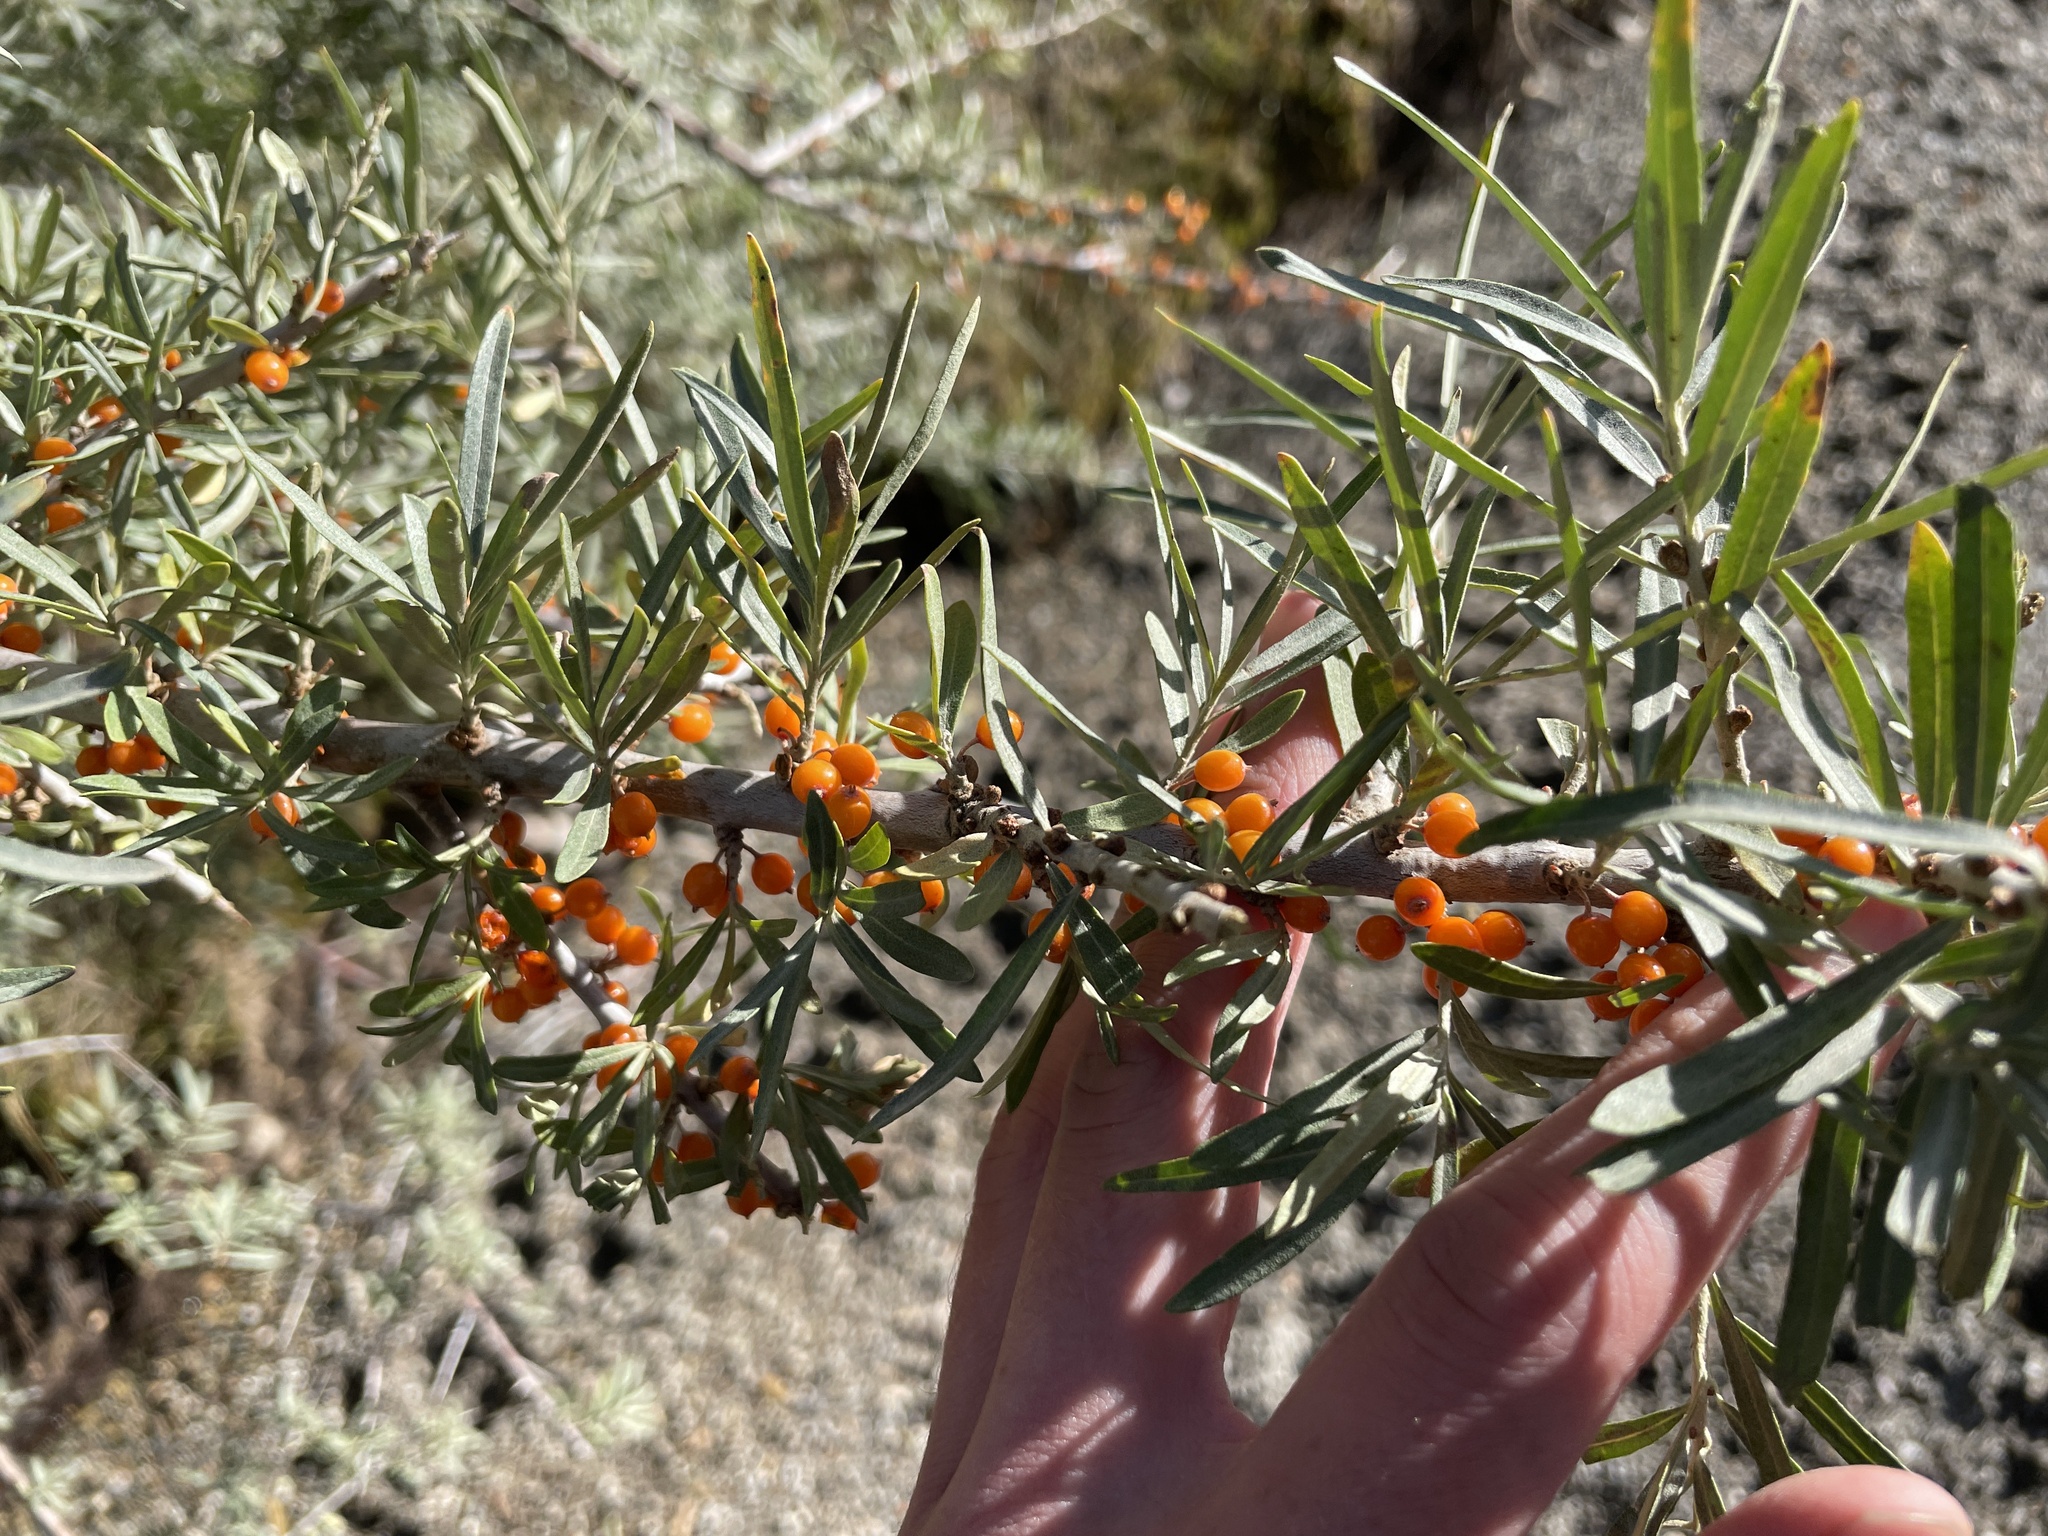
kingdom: Plantae
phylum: Tracheophyta
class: Magnoliopsida
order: Rosales
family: Elaeagnaceae
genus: Hippophae
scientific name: Hippophae rhamnoides
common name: Sea-buckthorn
